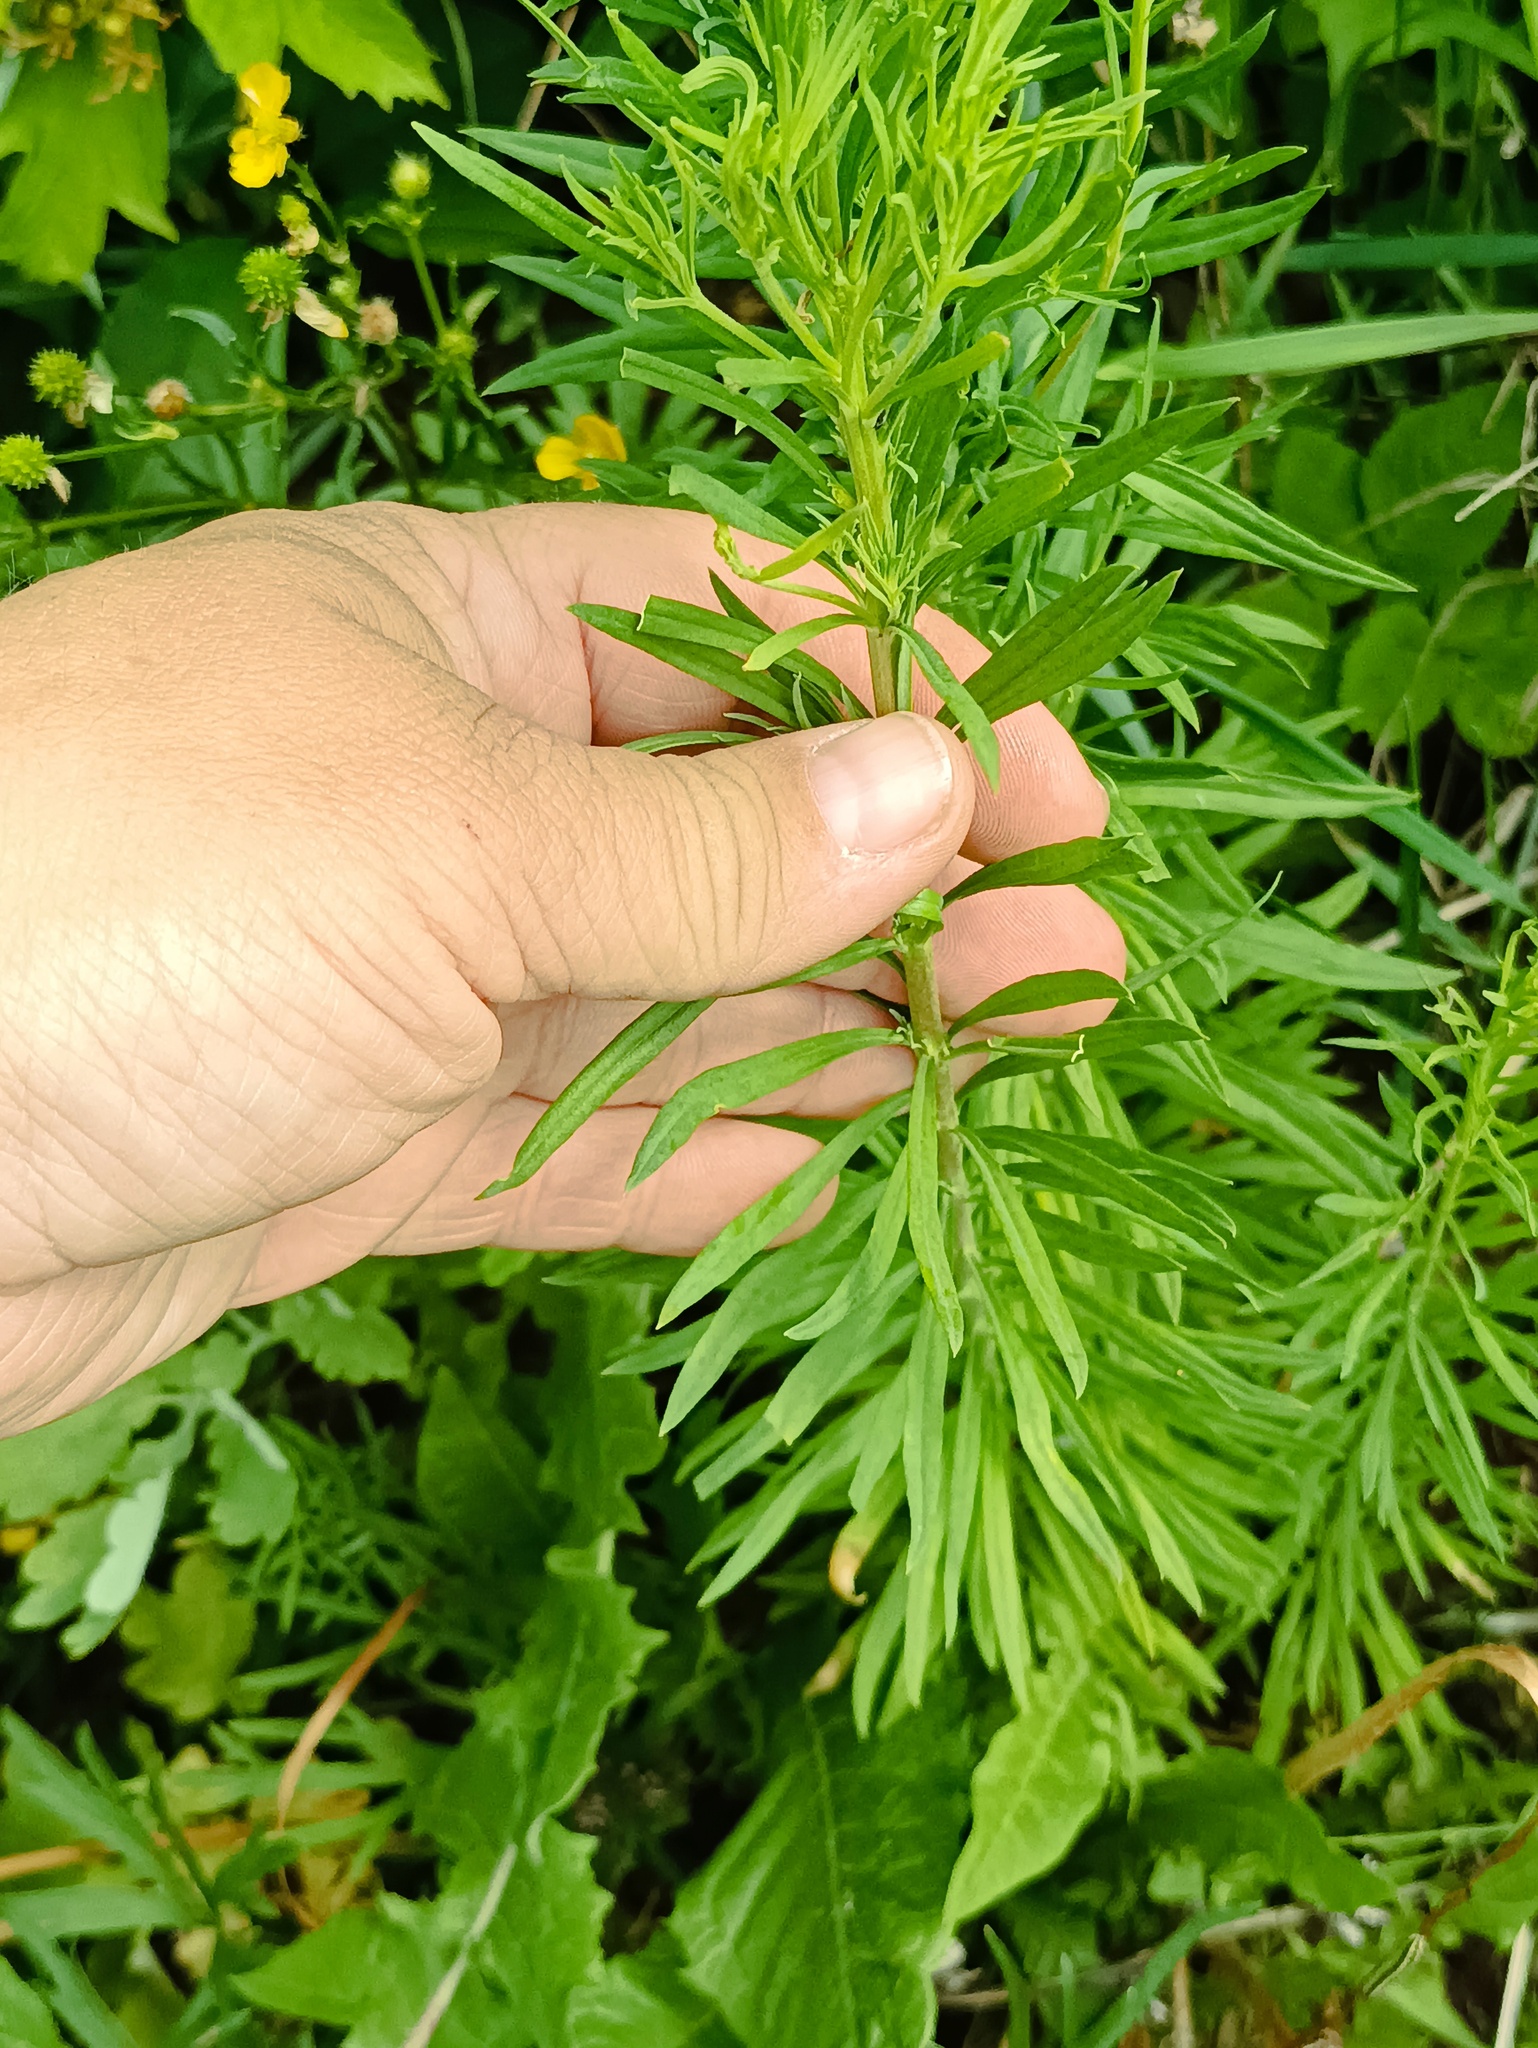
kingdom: Plantae
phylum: Tracheophyta
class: Magnoliopsida
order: Asterales
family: Asteraceae
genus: Erigeron
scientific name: Erigeron canadensis
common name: Canadian fleabane
